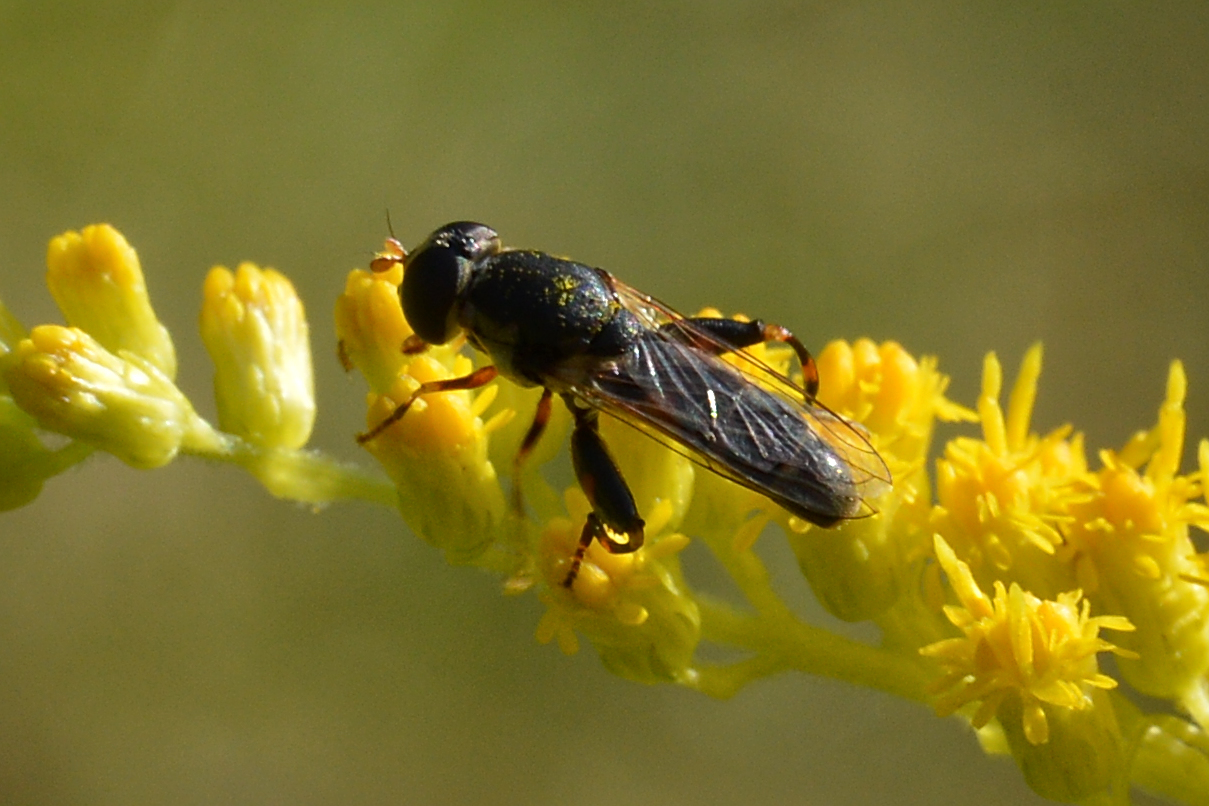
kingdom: Animalia
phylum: Arthropoda
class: Insecta
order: Diptera
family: Syrphidae
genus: Syritta
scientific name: Syritta pipiens
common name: Hover fly
